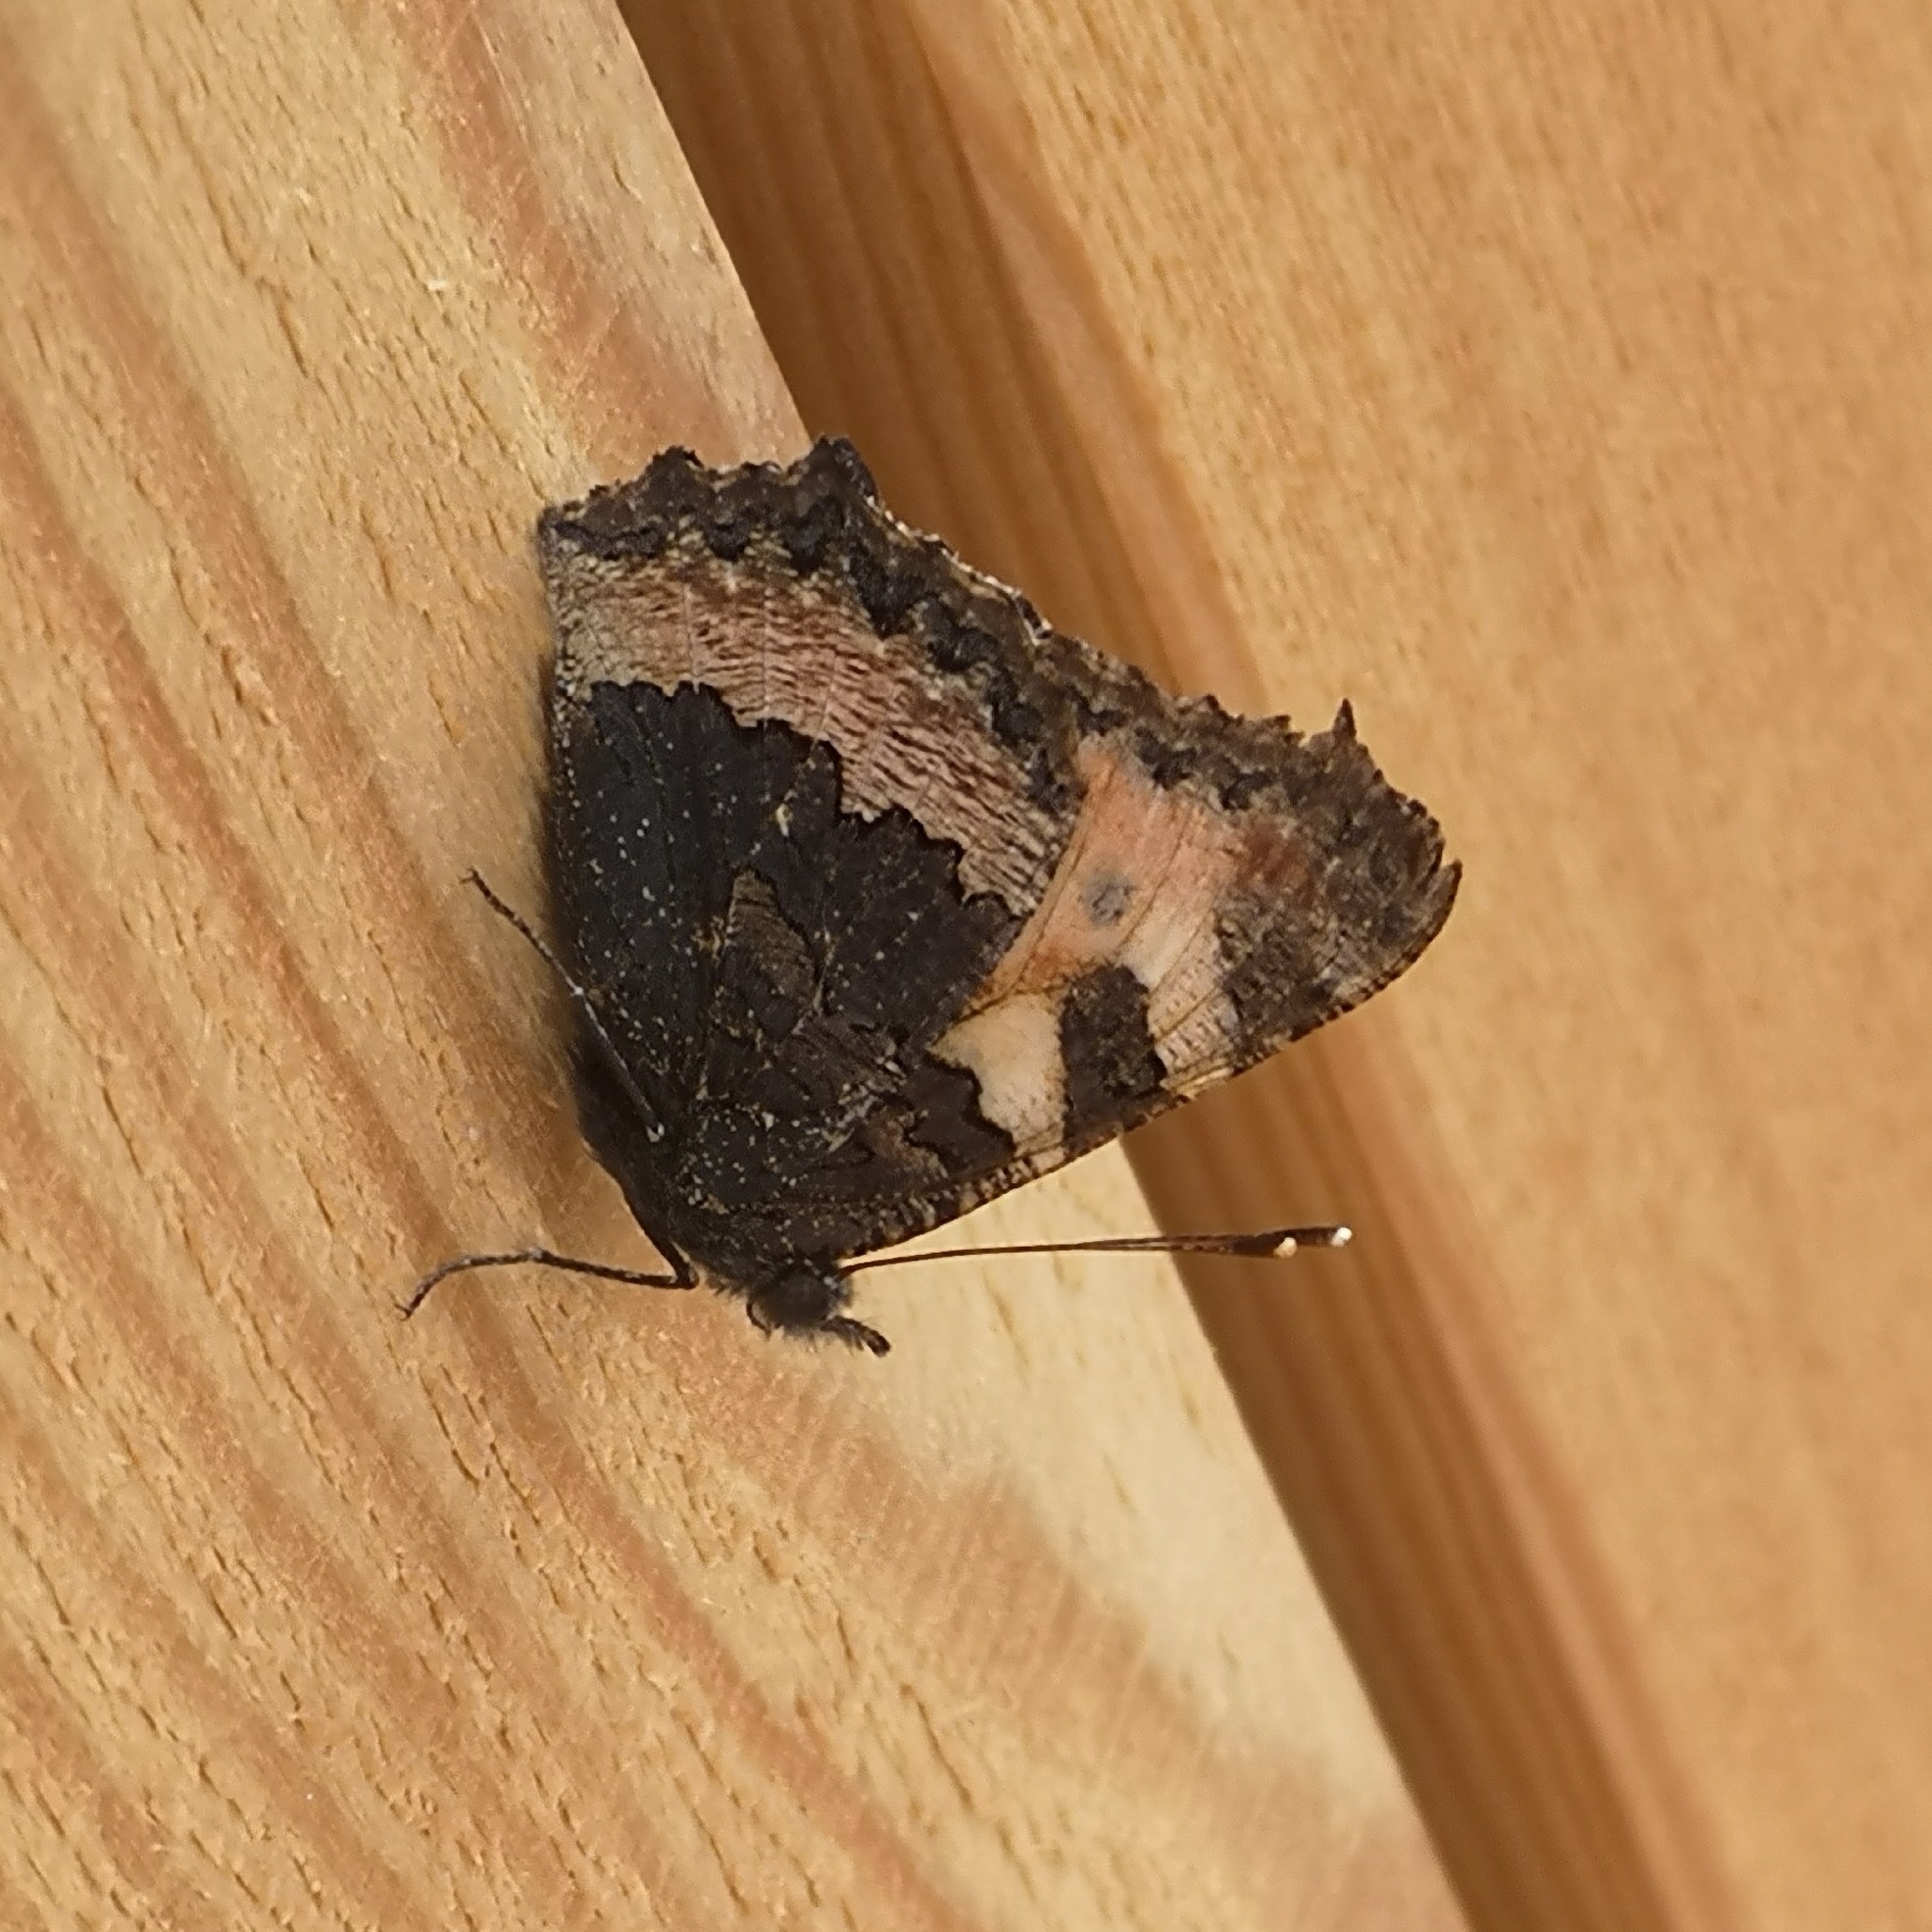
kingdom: Animalia
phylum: Arthropoda
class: Insecta
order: Lepidoptera
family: Nymphalidae
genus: Aglais
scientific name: Aglais urticae
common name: Small tortoiseshell
